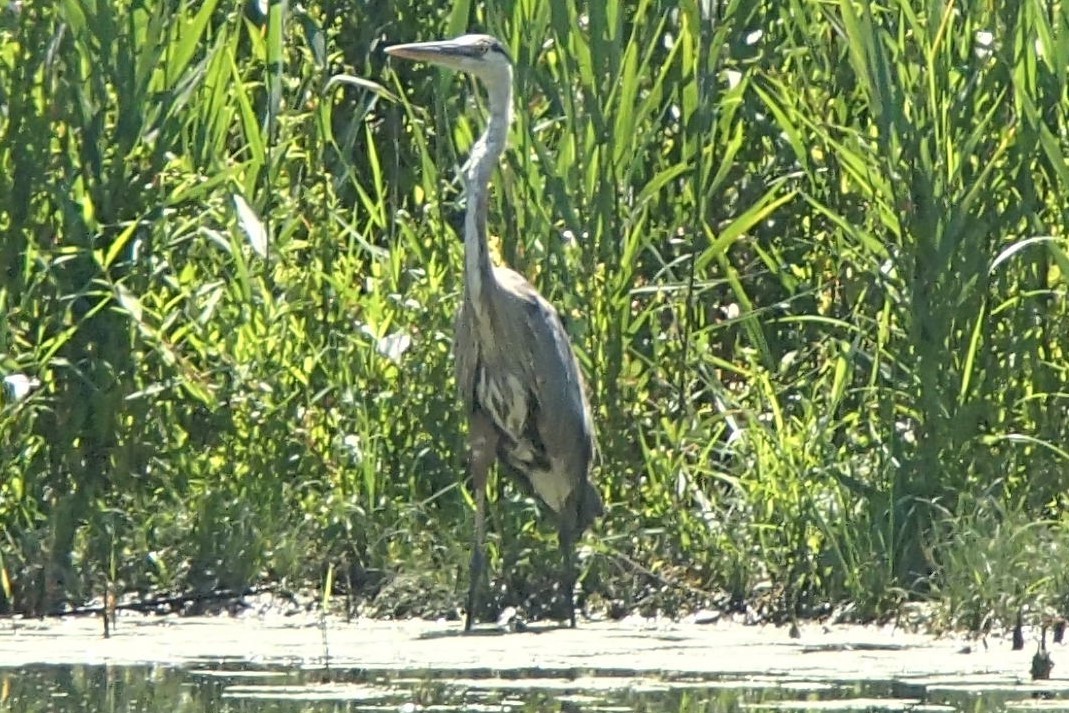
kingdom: Animalia
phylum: Chordata
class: Aves
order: Pelecaniformes
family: Ardeidae
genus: Ardea
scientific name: Ardea herodias
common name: Great blue heron
